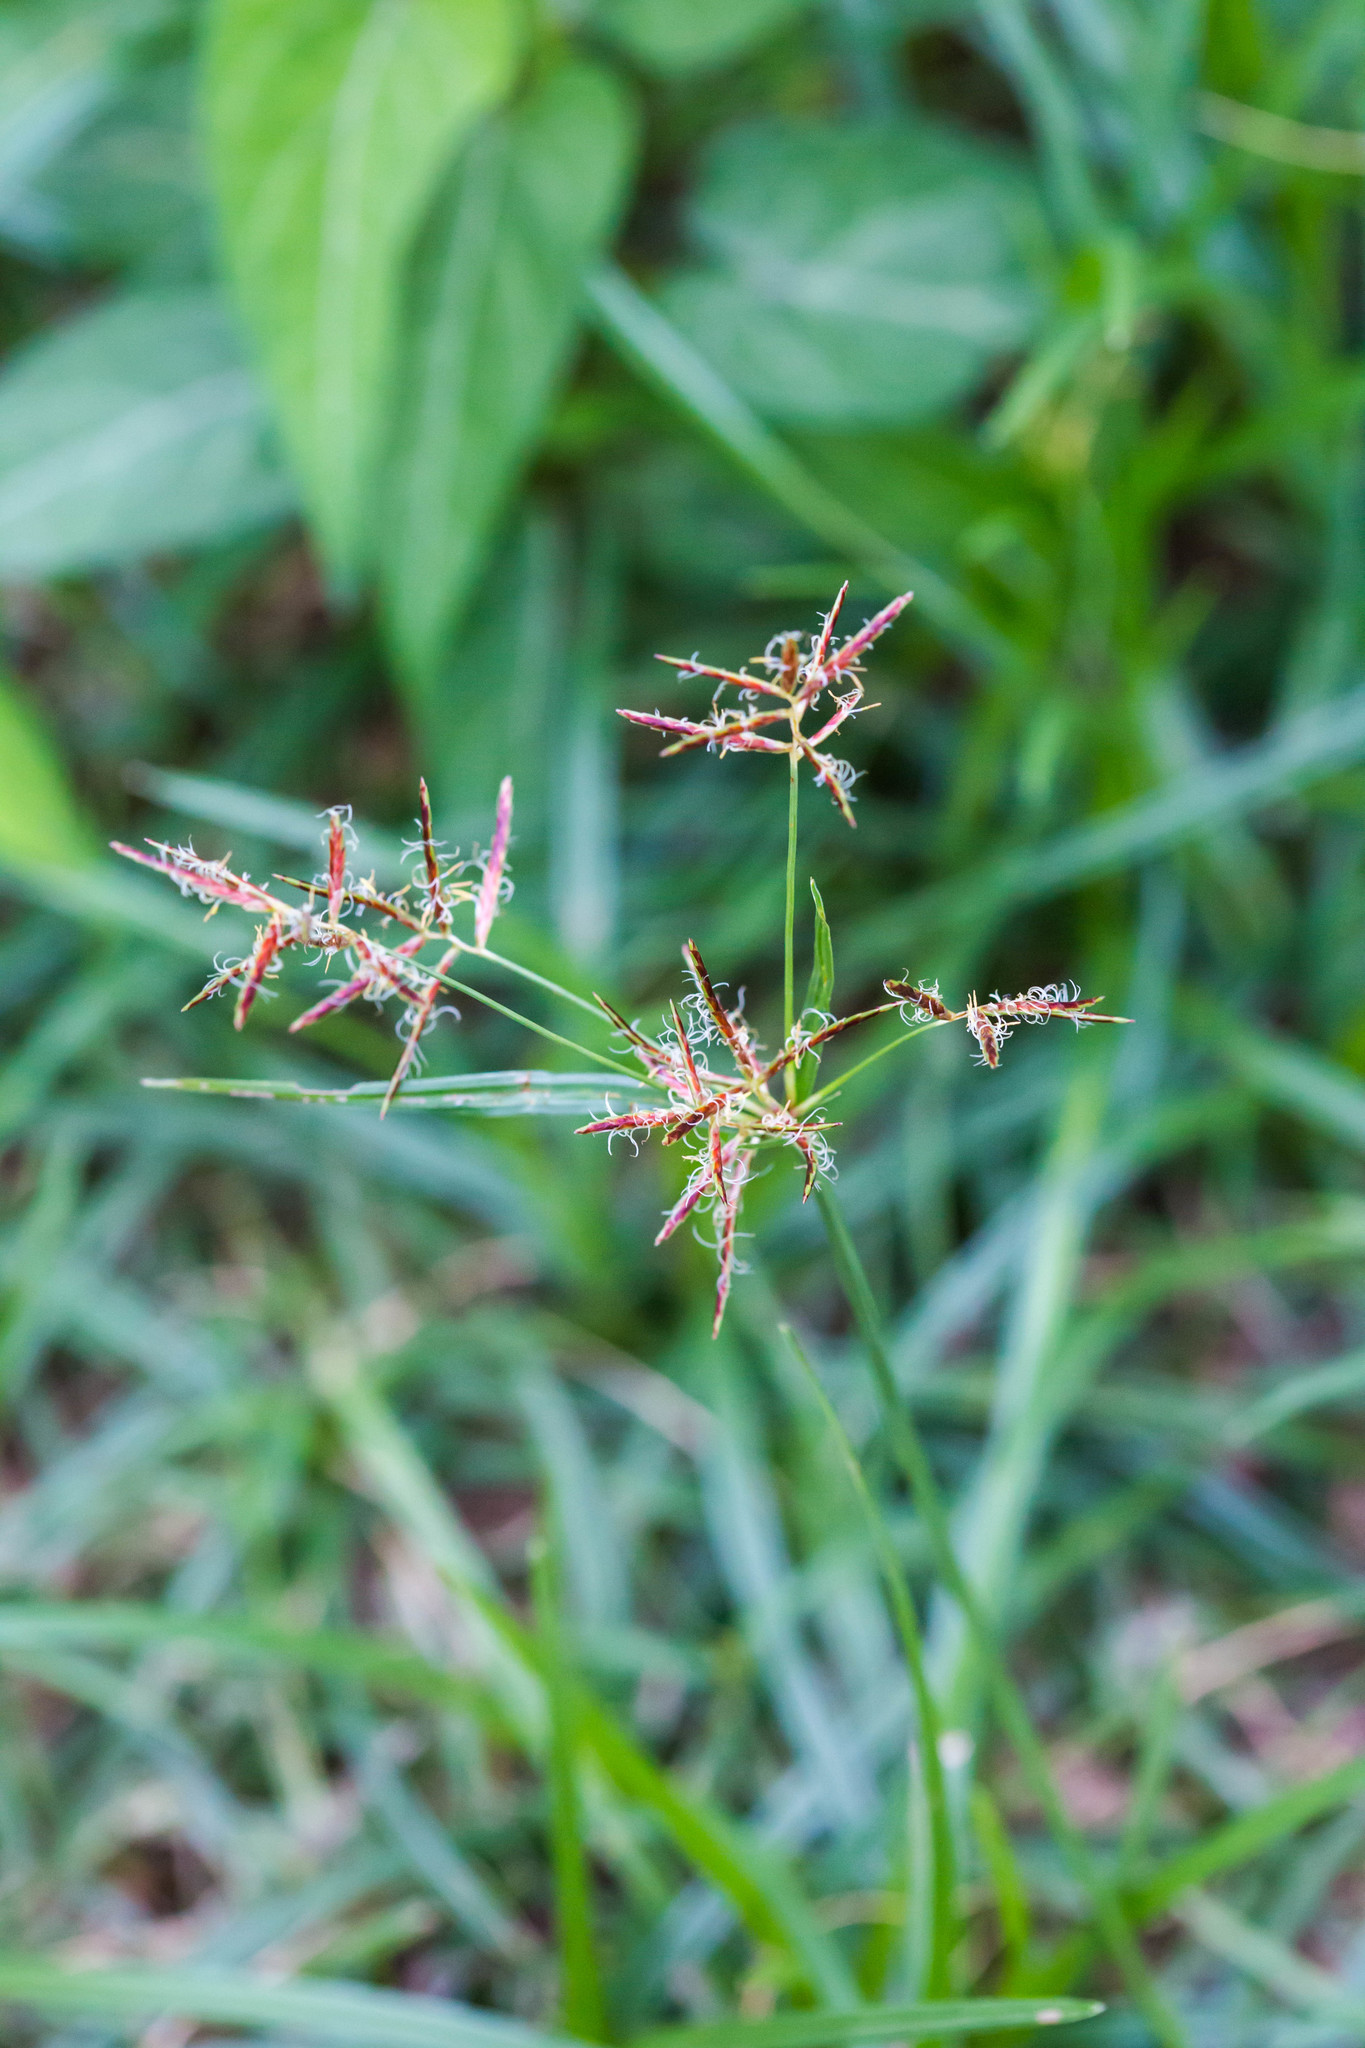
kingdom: Plantae
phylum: Tracheophyta
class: Liliopsida
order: Poales
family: Cyperaceae
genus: Cyperus
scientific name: Cyperus rotundus
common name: Nutgrass
